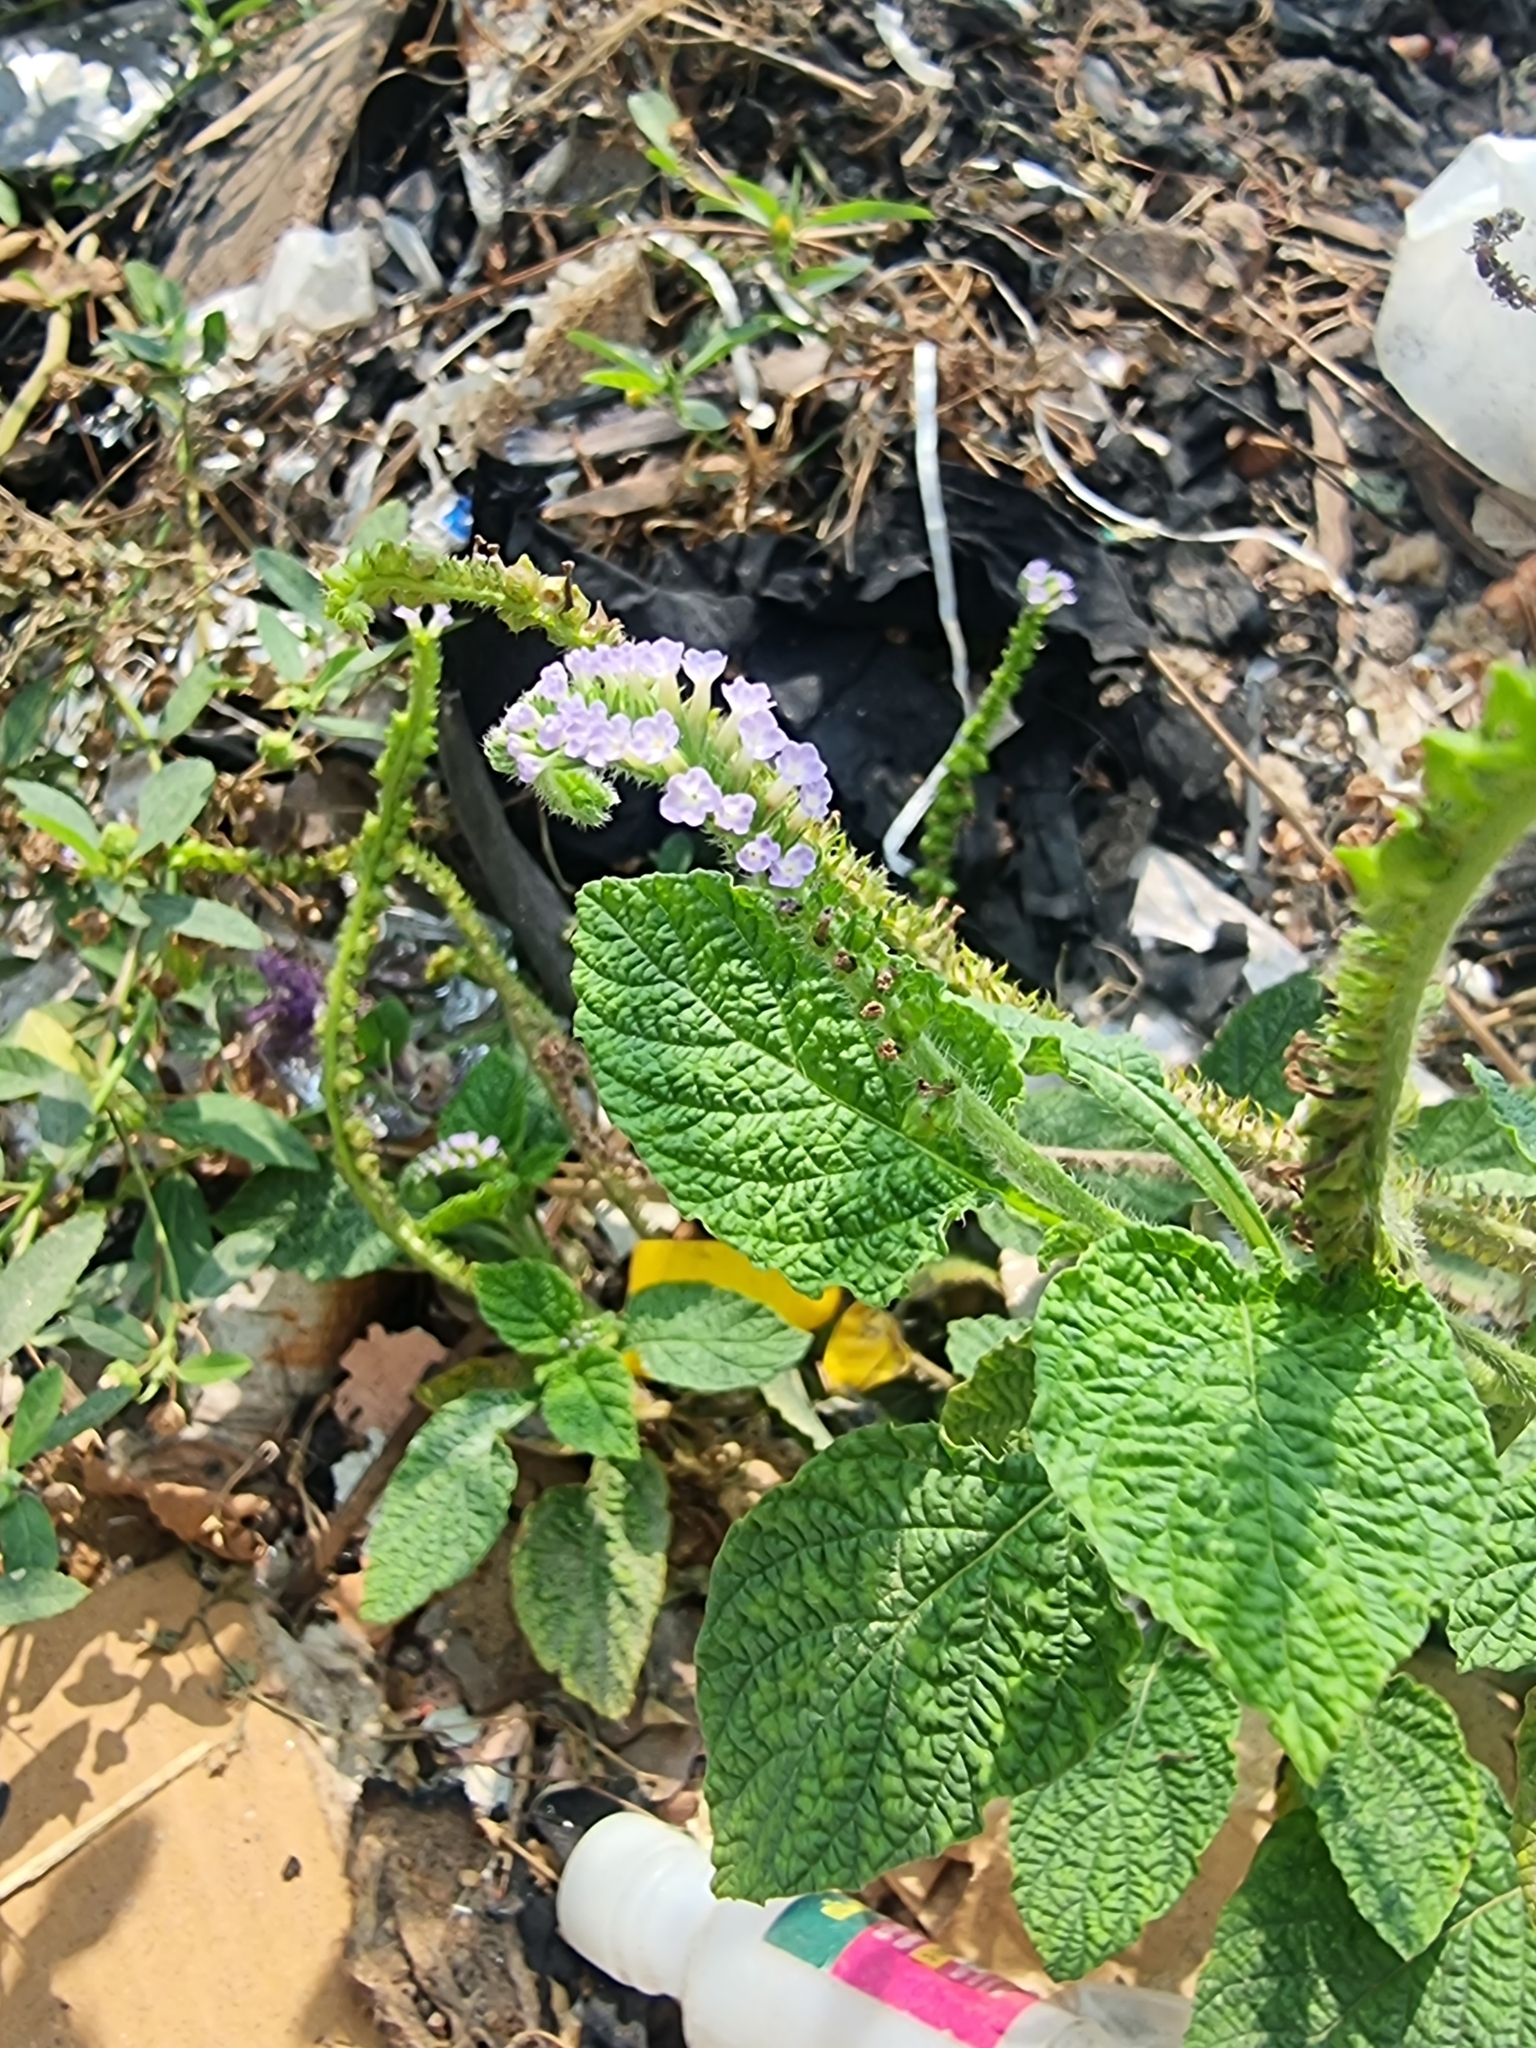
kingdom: Plantae
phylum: Tracheophyta
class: Magnoliopsida
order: Boraginales
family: Heliotropiaceae
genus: Heliotropium
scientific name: Heliotropium indicum
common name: Indian heliotrope
